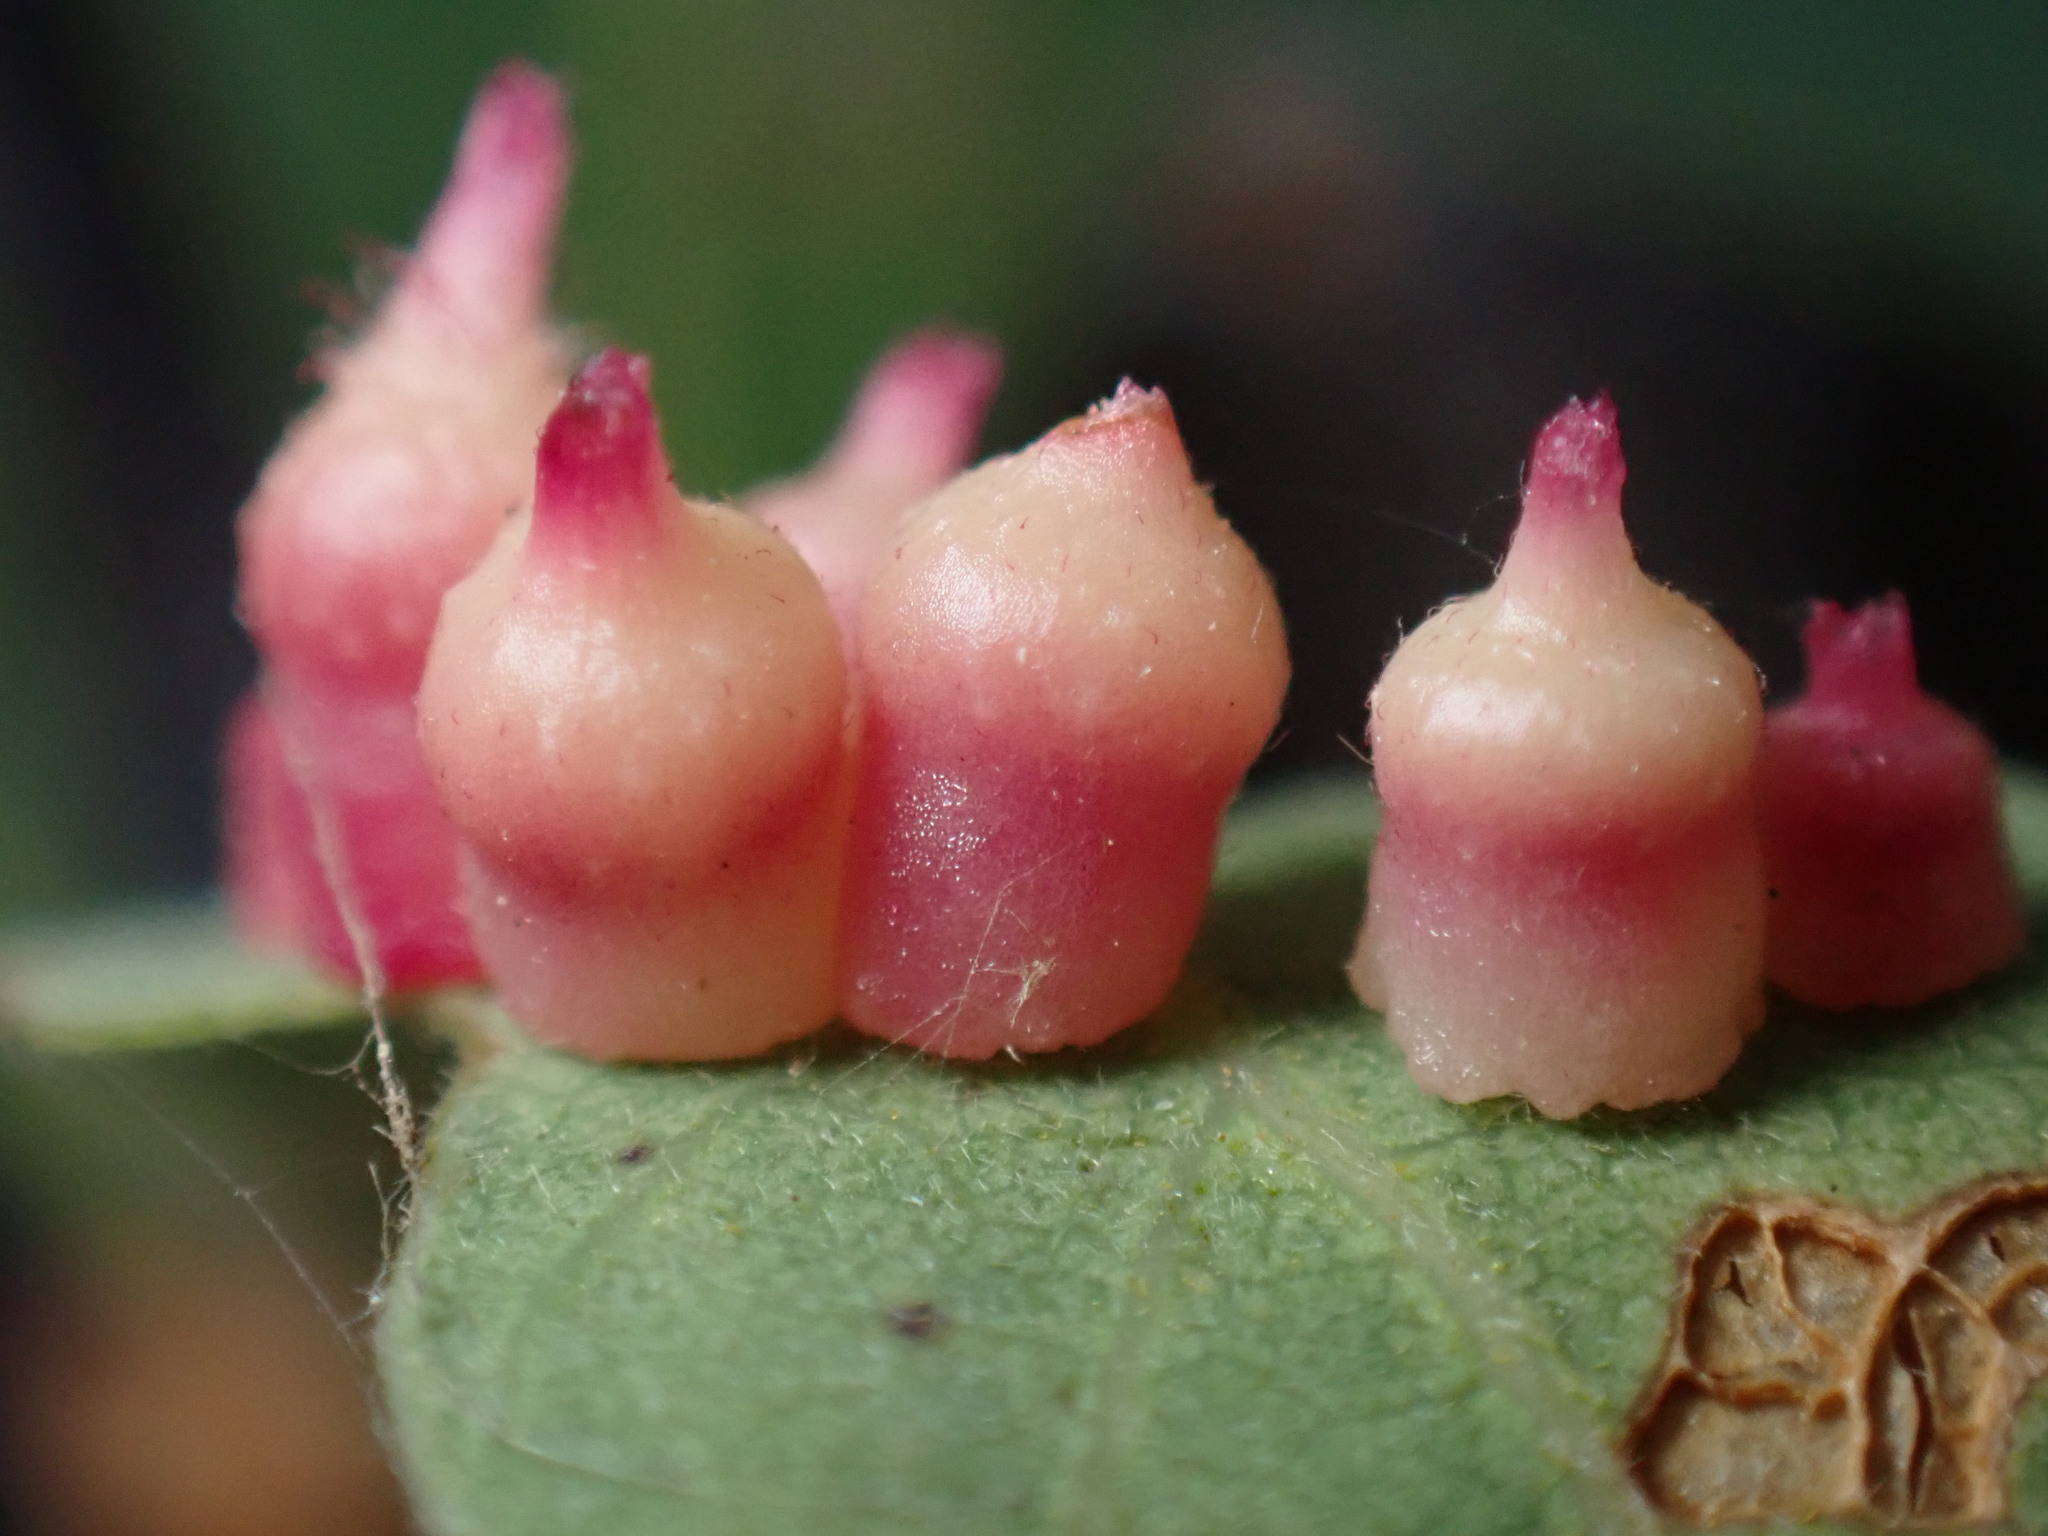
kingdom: Animalia
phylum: Arthropoda
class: Insecta
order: Hymenoptera
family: Cynipidae
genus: Andricus
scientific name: Andricus
